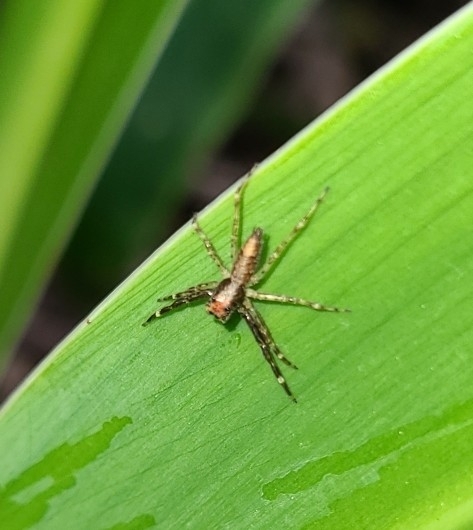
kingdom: Animalia
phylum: Arthropoda
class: Arachnida
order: Araneae
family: Salticidae
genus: Helpis
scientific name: Helpis minitabunda
